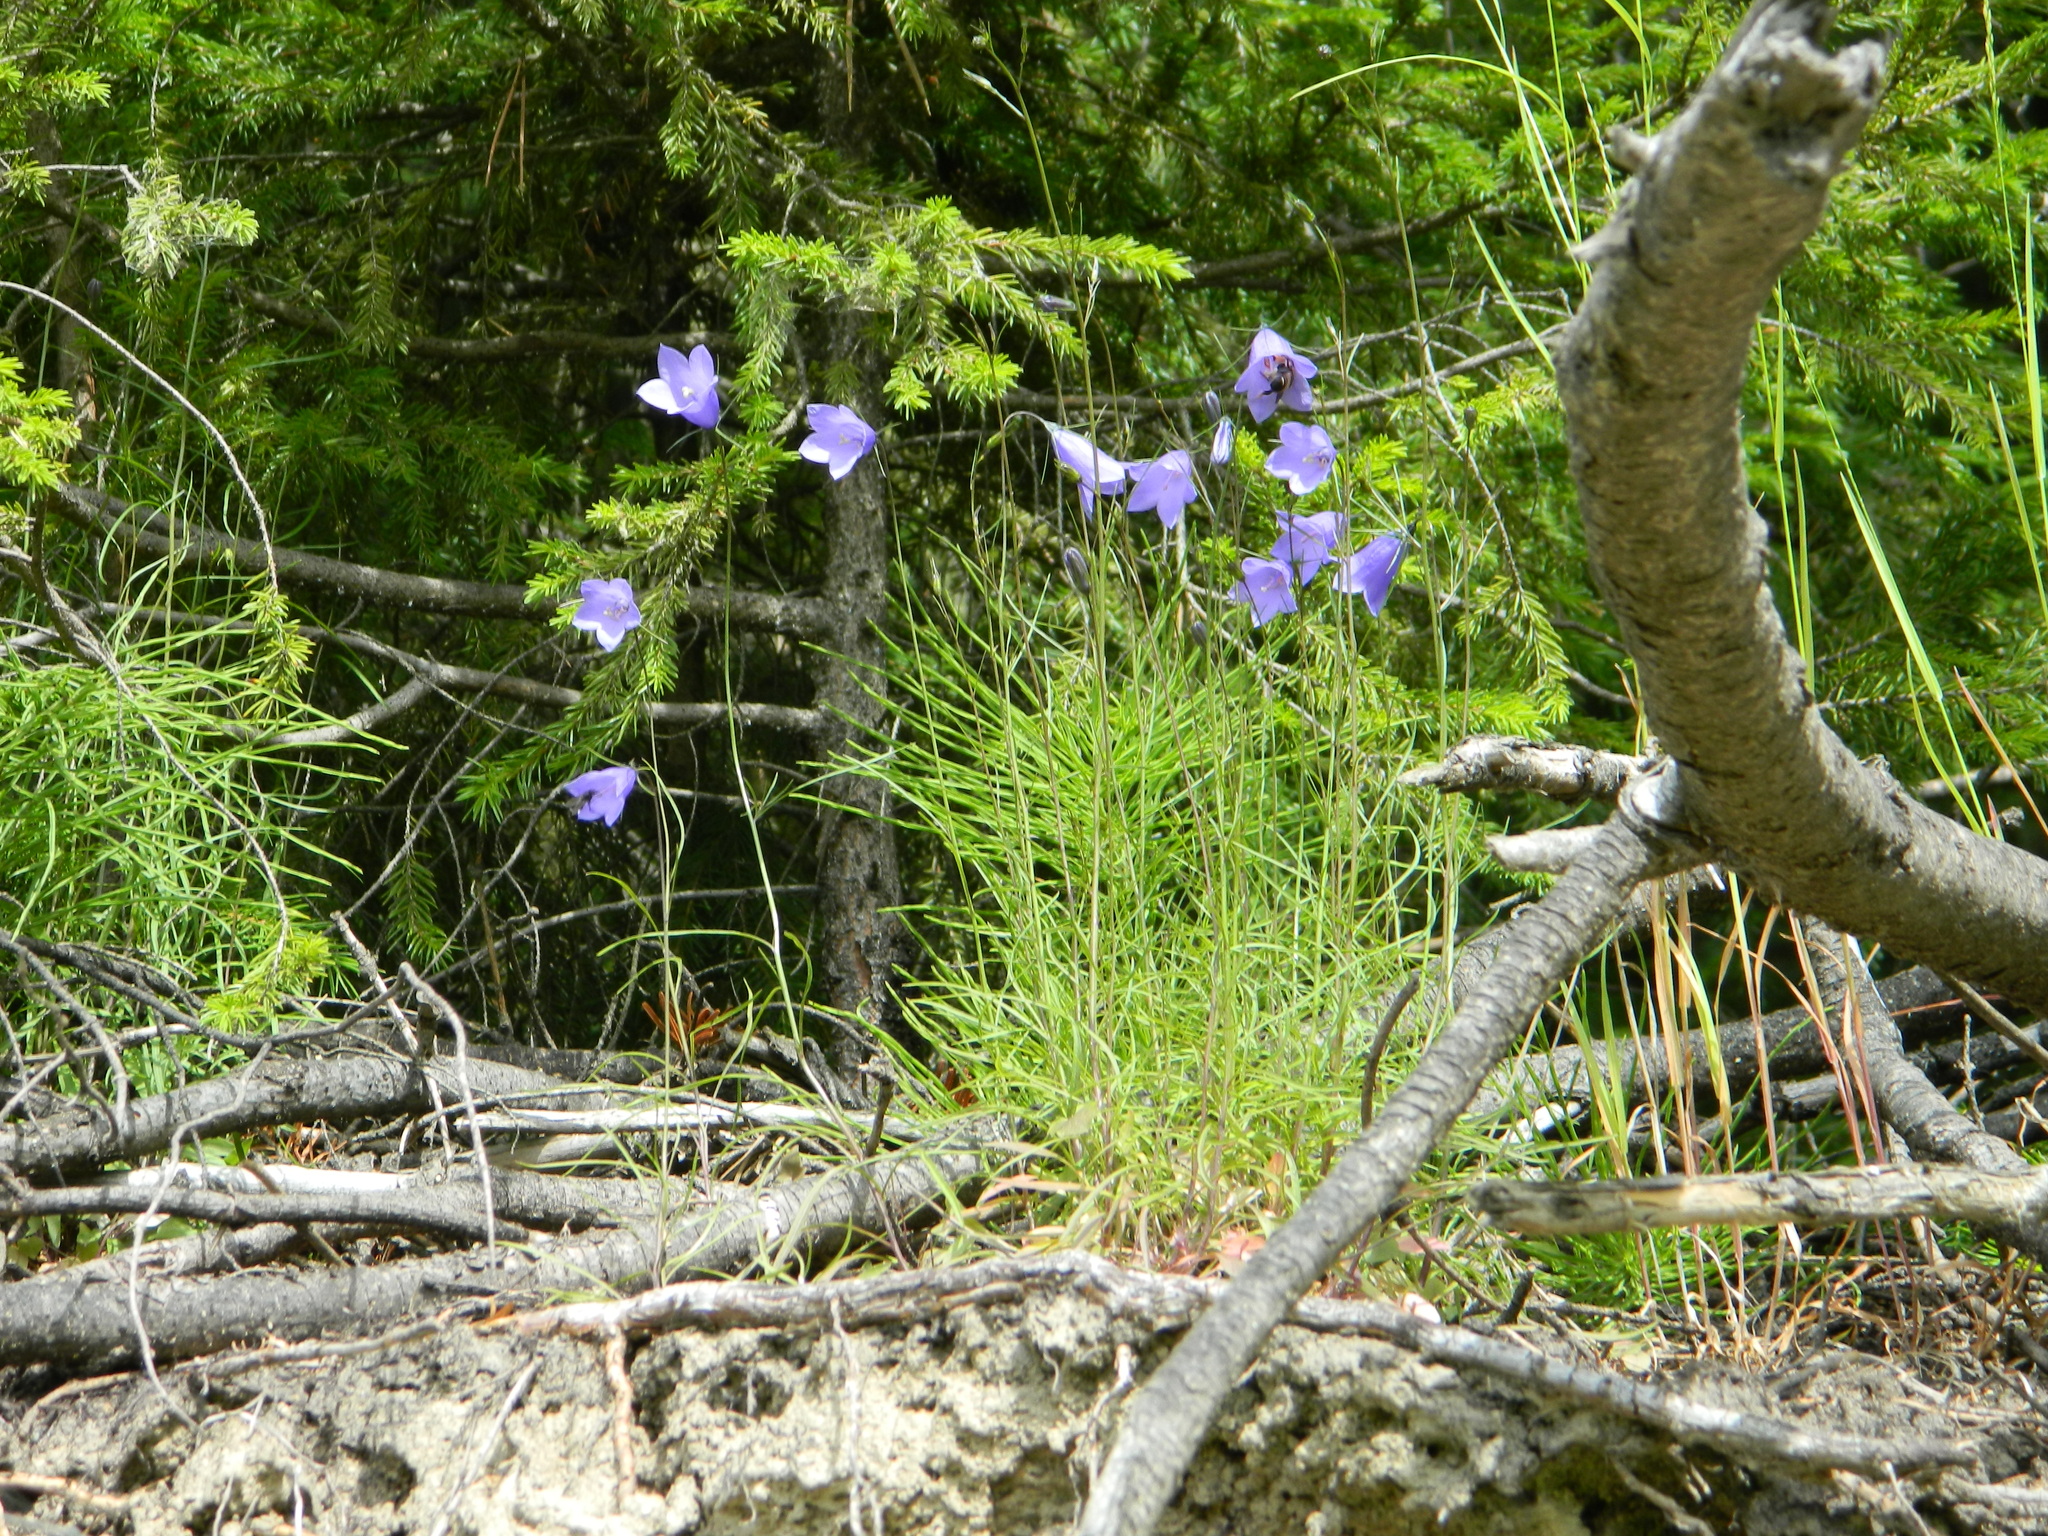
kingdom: Plantae
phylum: Tracheophyta
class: Magnoliopsida
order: Asterales
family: Campanulaceae
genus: Campanula
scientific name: Campanula rotundifolia
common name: Harebell
